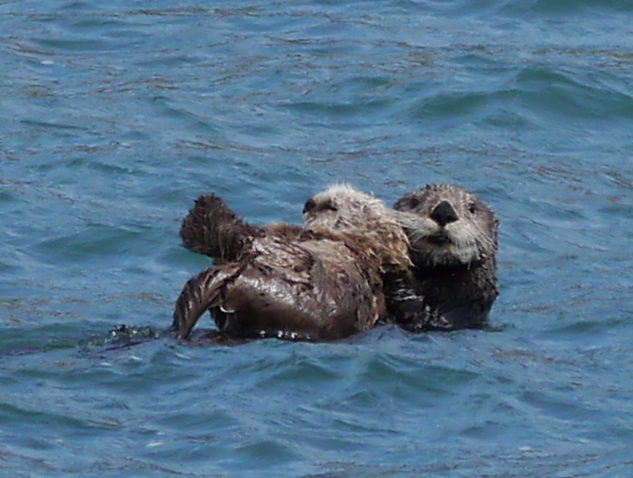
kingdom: Animalia
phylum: Chordata
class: Mammalia
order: Carnivora
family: Mustelidae
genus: Enhydra
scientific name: Enhydra lutris
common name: Sea otter
